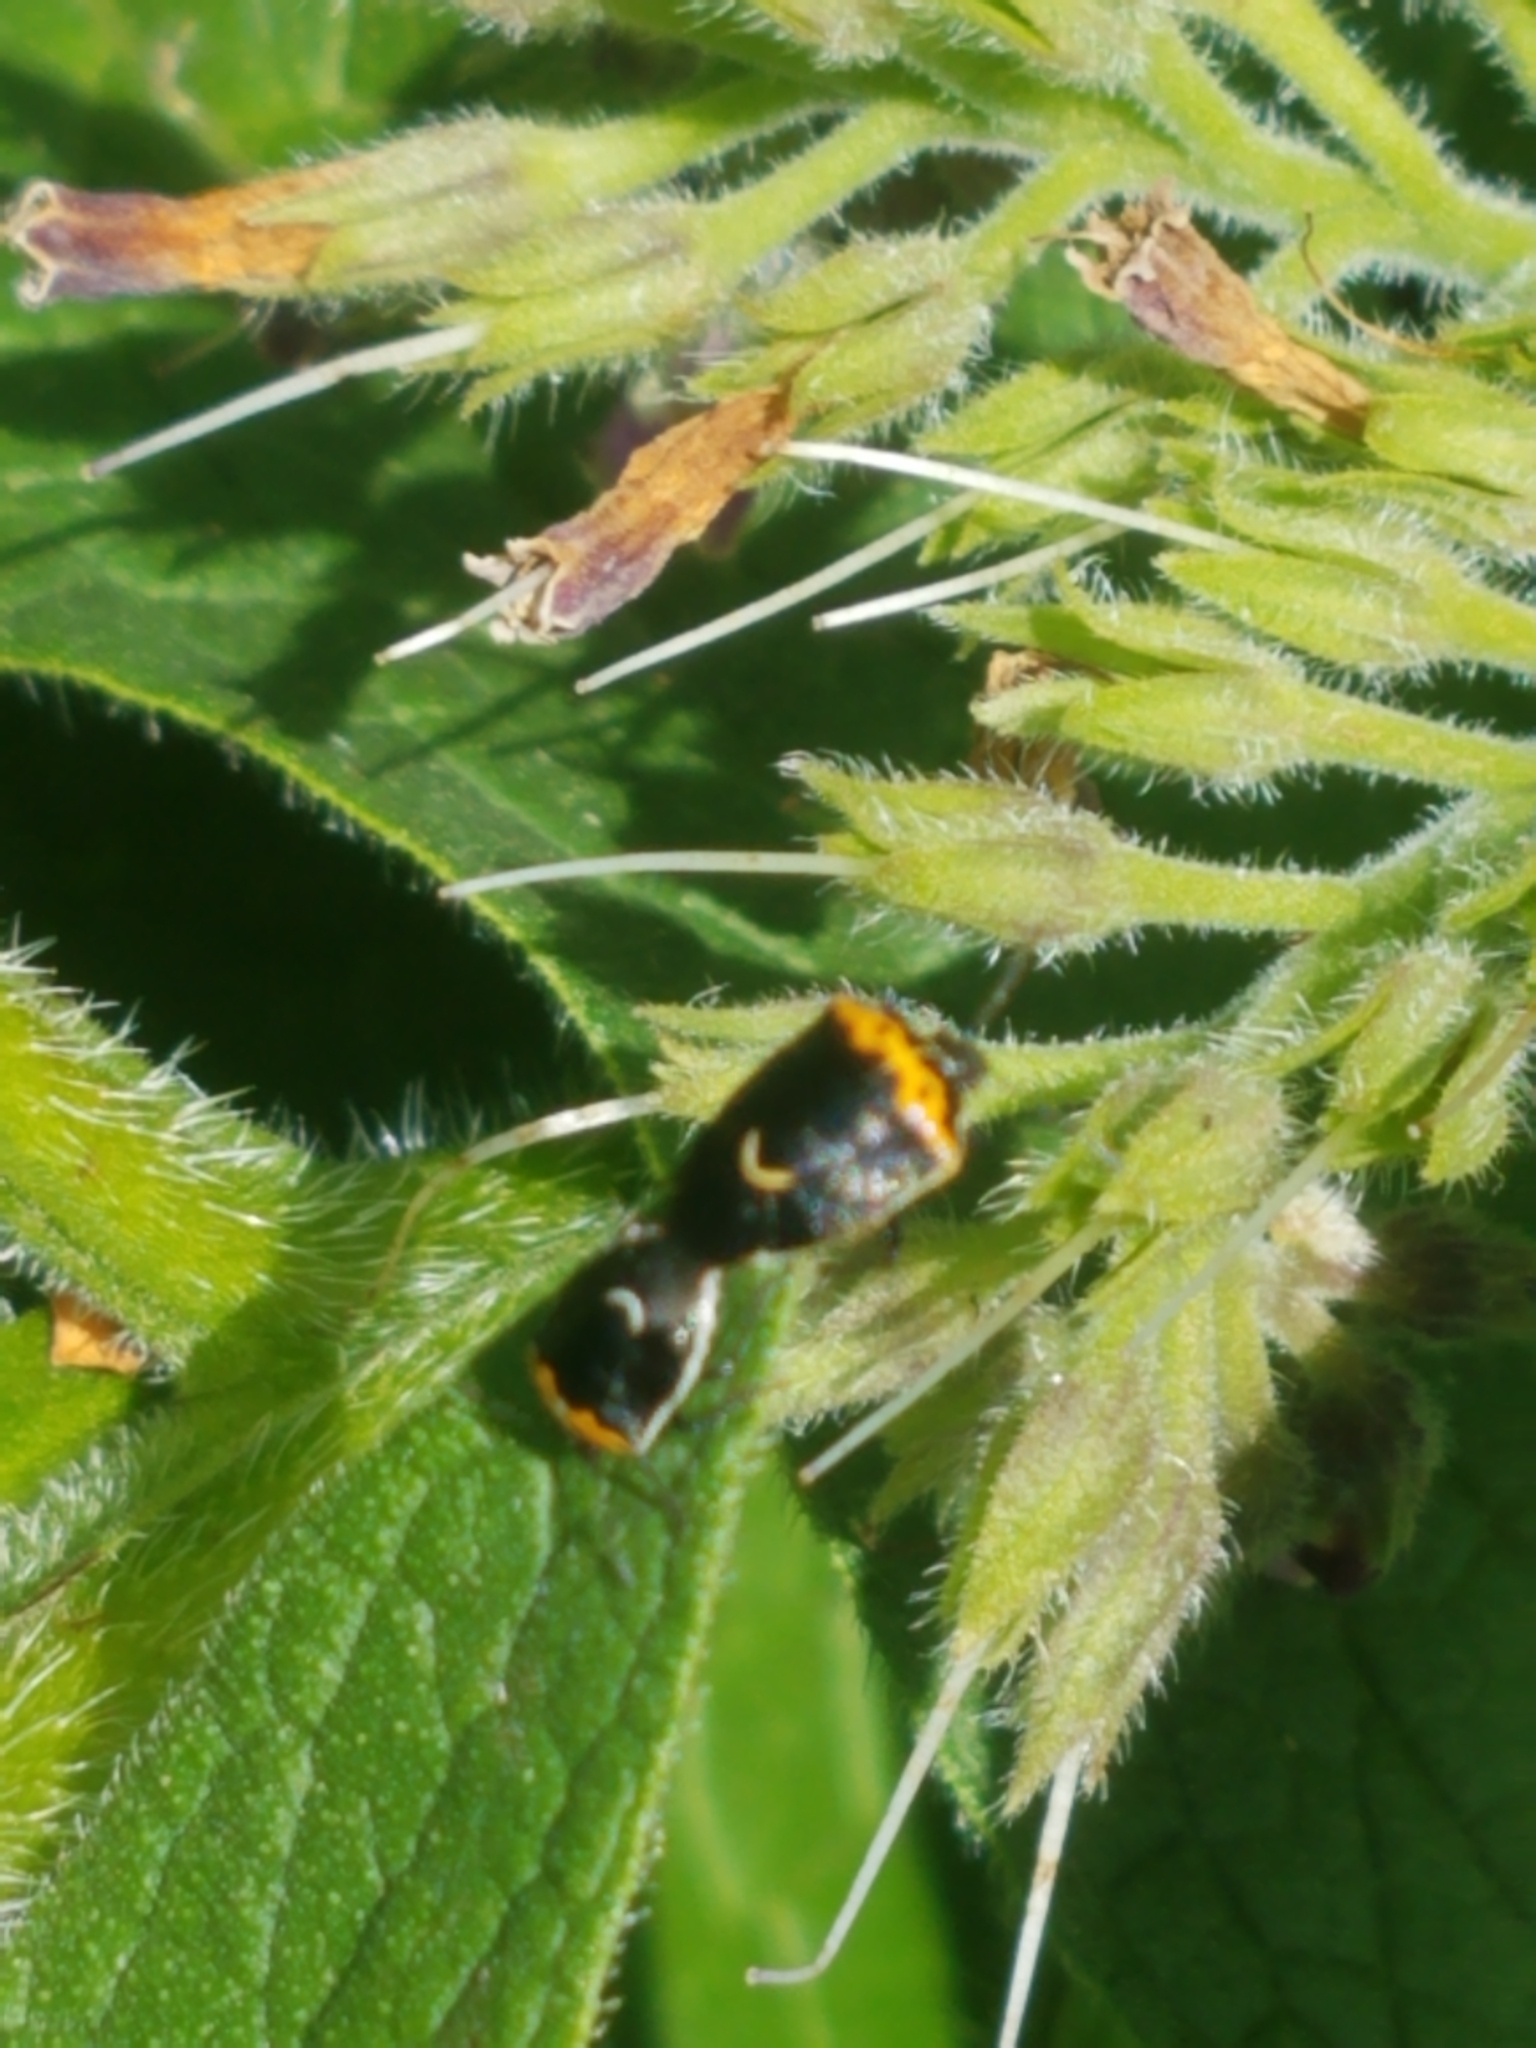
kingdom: Animalia
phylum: Arthropoda
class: Insecta
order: Hemiptera
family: Pentatomidae
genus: Cosmopepla
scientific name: Cosmopepla conspicillaris
